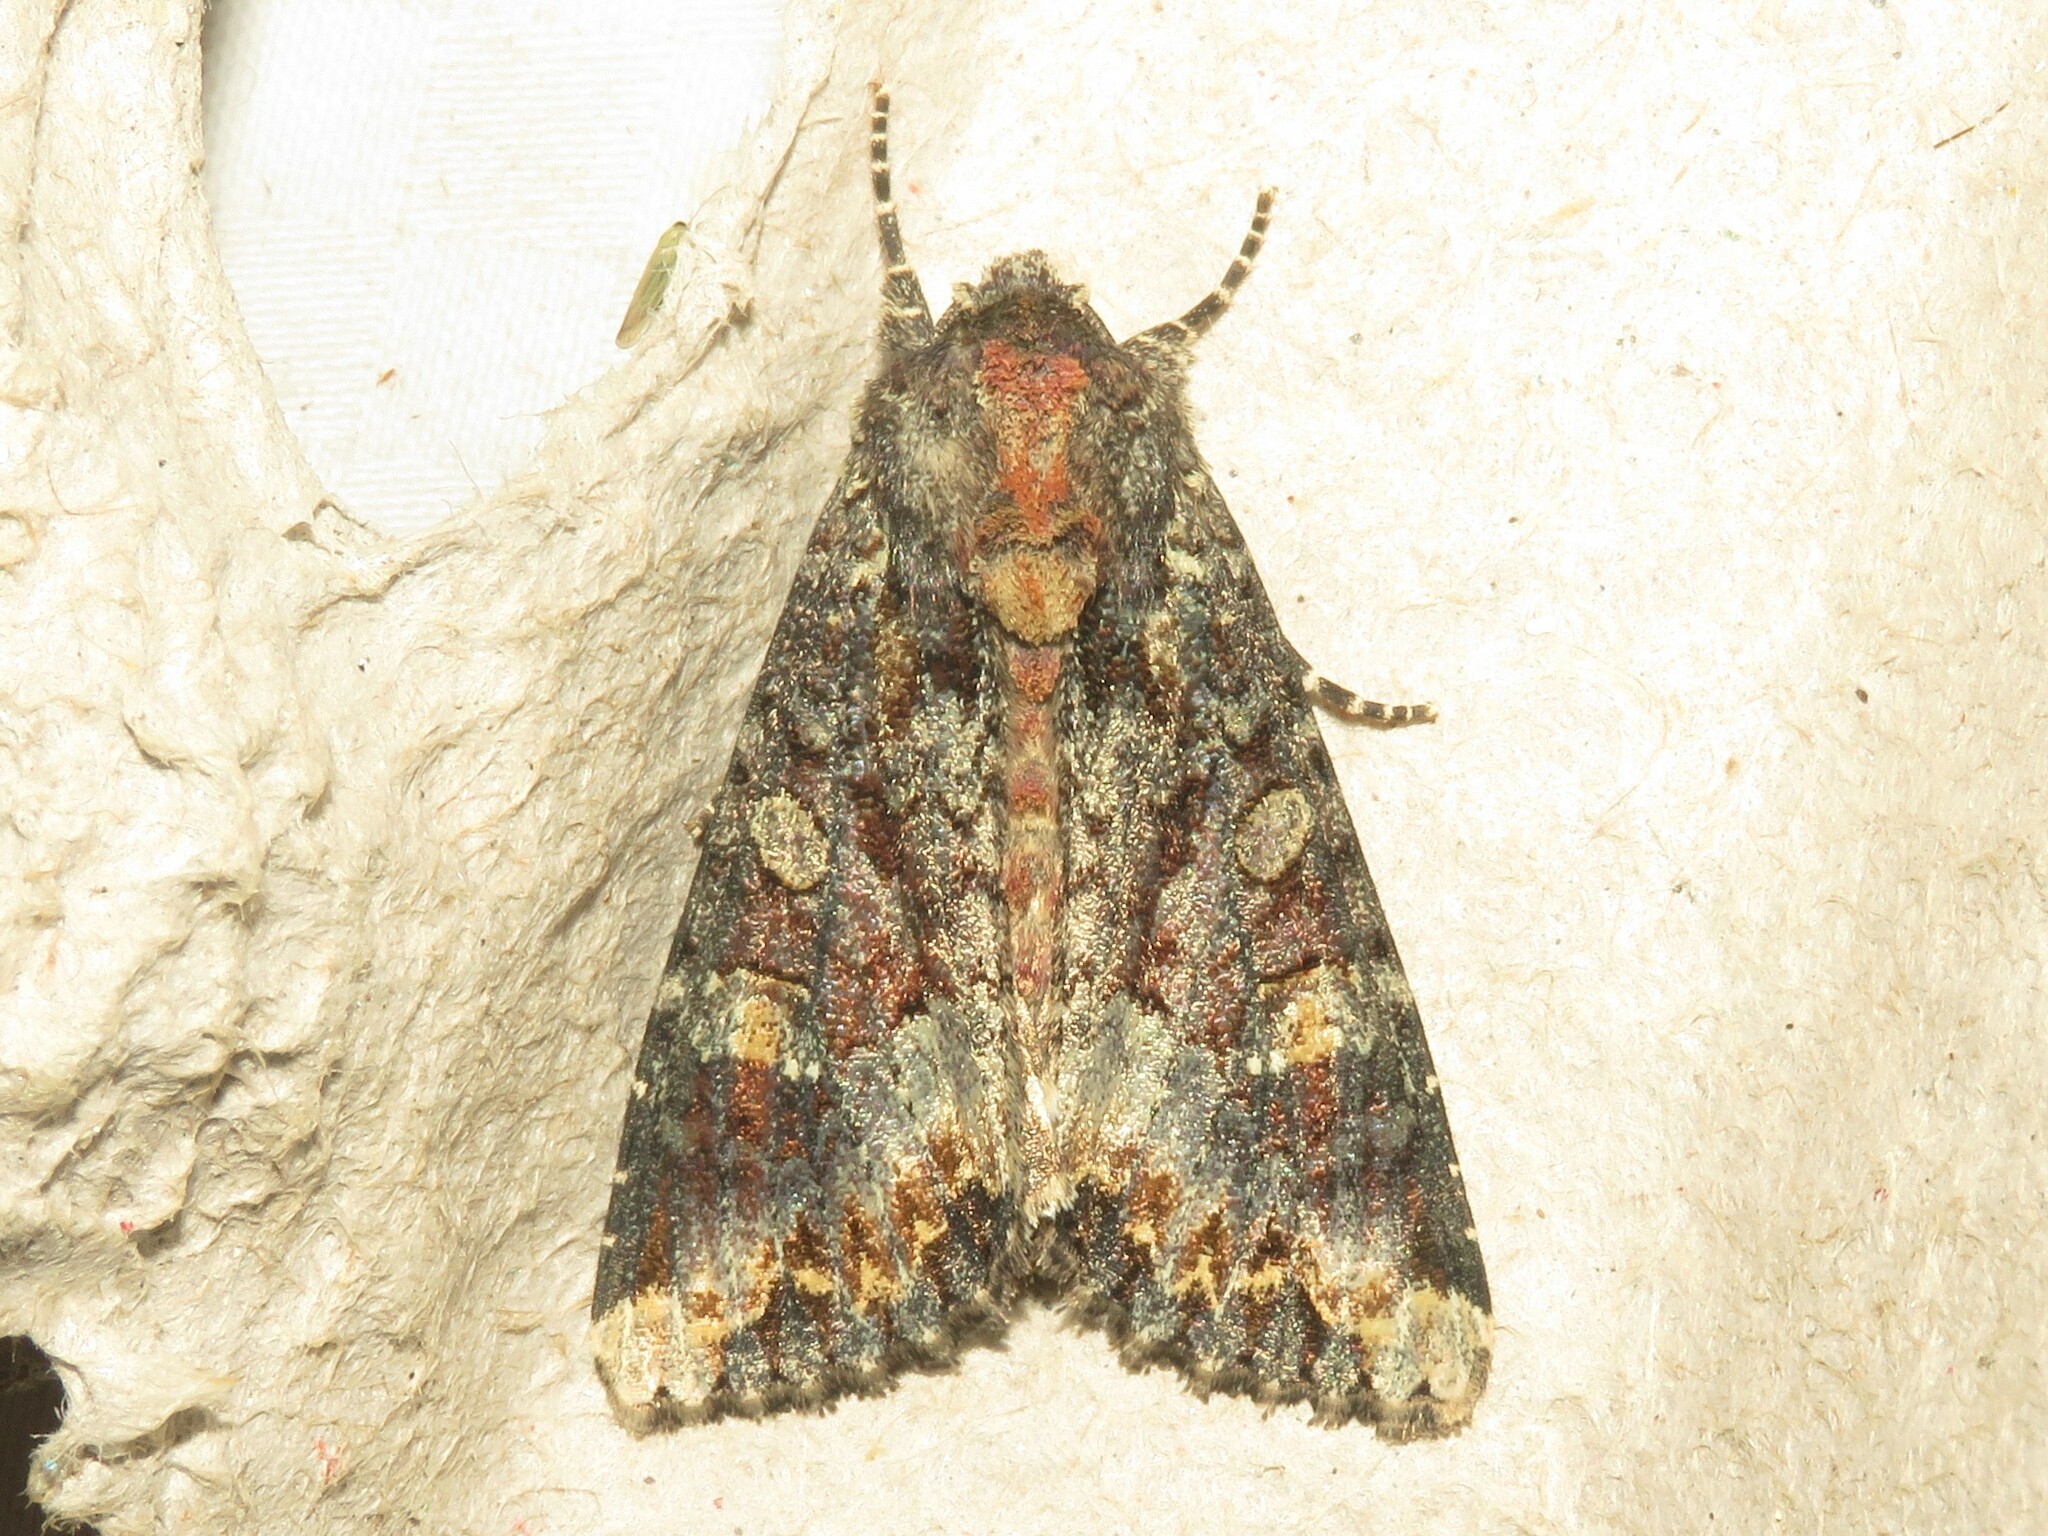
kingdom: Animalia
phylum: Arthropoda
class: Insecta
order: Lepidoptera
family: Noctuidae
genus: Apamea
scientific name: Apamea amputatrix
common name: Yellow-headed cutworm moth
